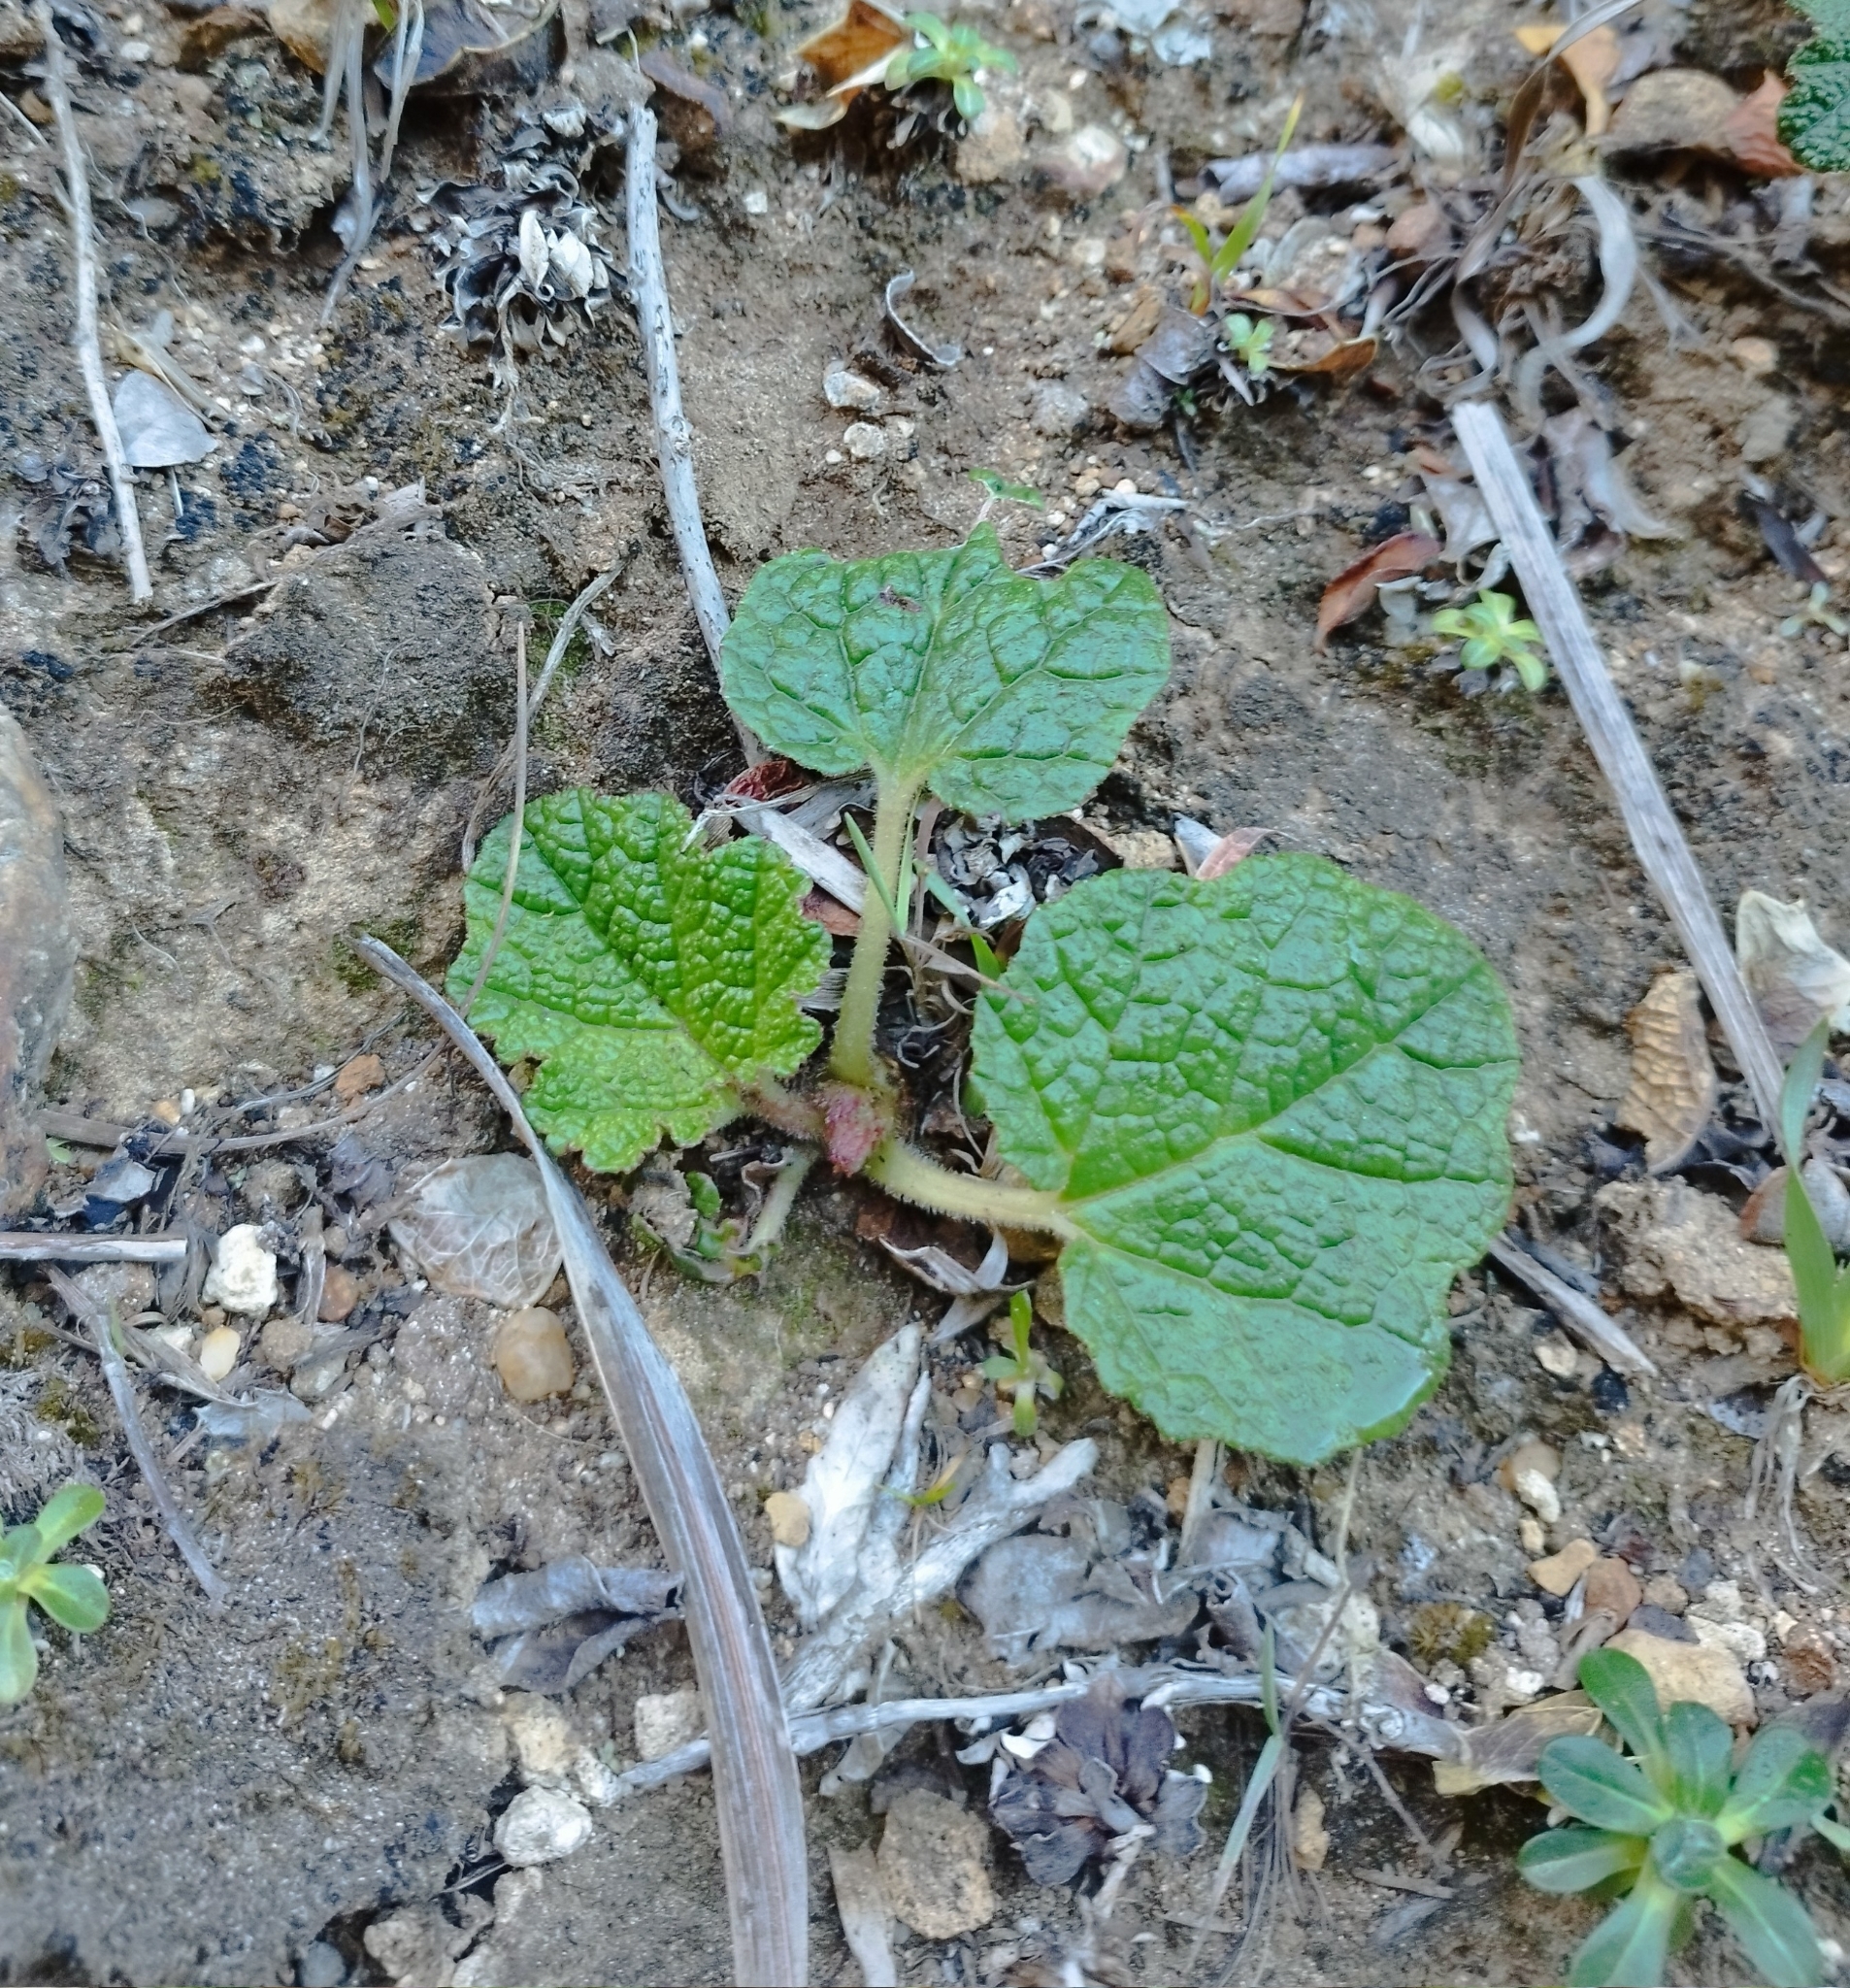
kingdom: Plantae
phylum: Tracheophyta
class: Magnoliopsida
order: Gunnerales
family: Gunneraceae
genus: Gunnera
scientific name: Gunnera tinctoria
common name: Giant-rhubarb
